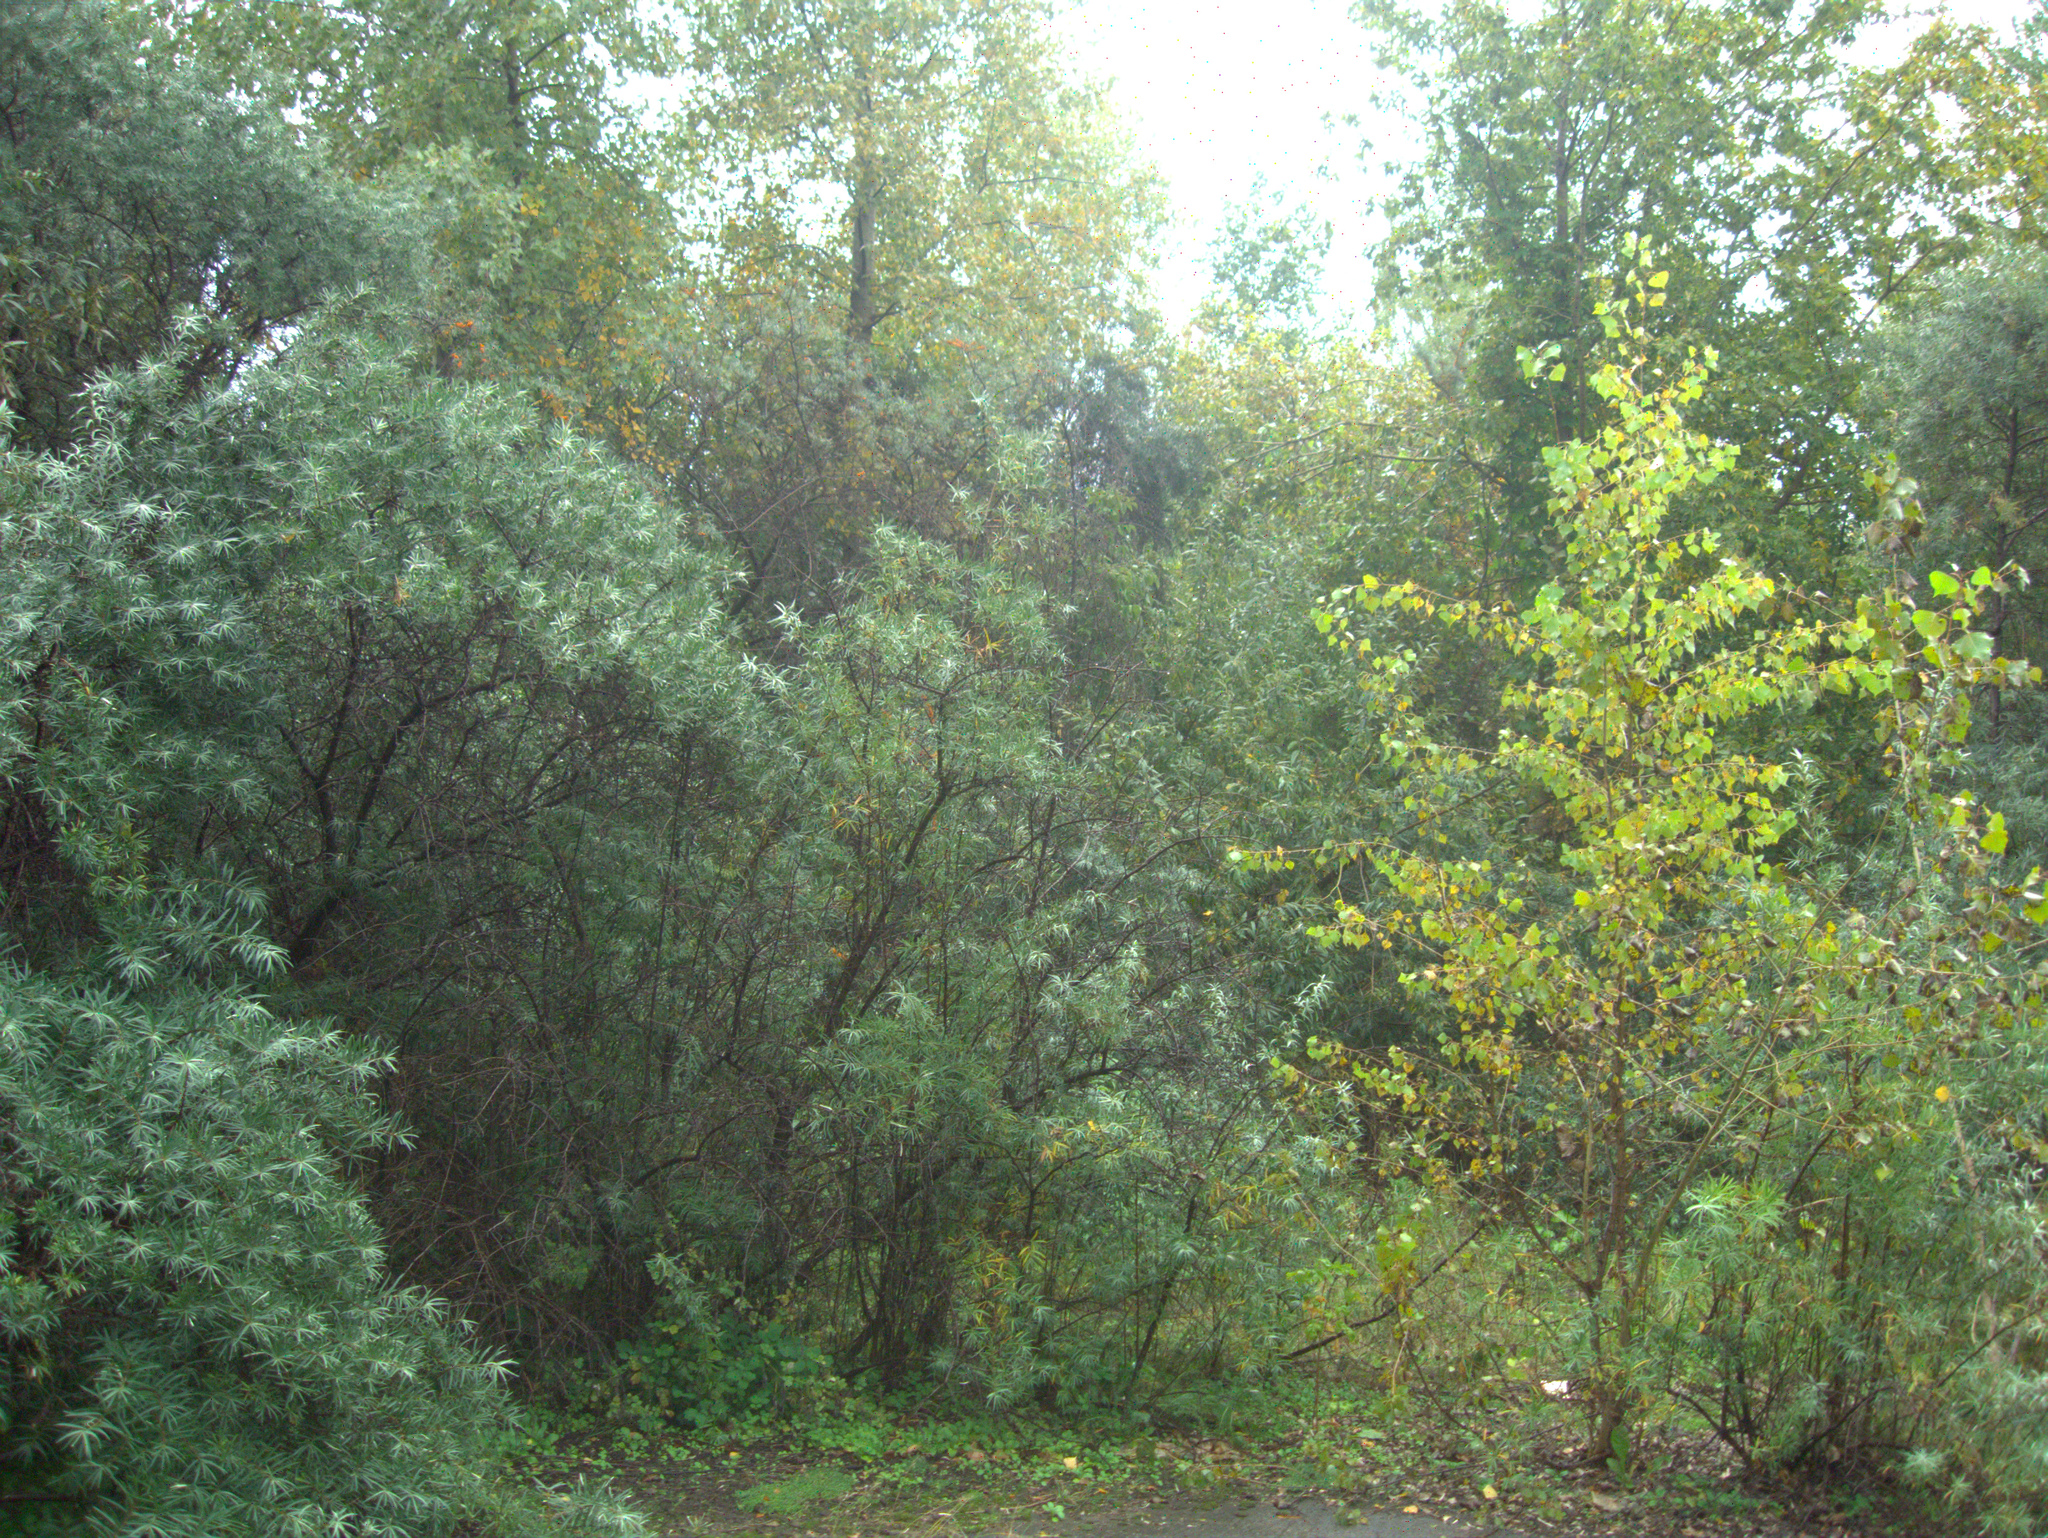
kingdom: Plantae
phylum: Tracheophyta
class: Magnoliopsida
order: Rosales
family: Elaeagnaceae
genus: Hippophae
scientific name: Hippophae rhamnoides
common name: Sea-buckthorn
